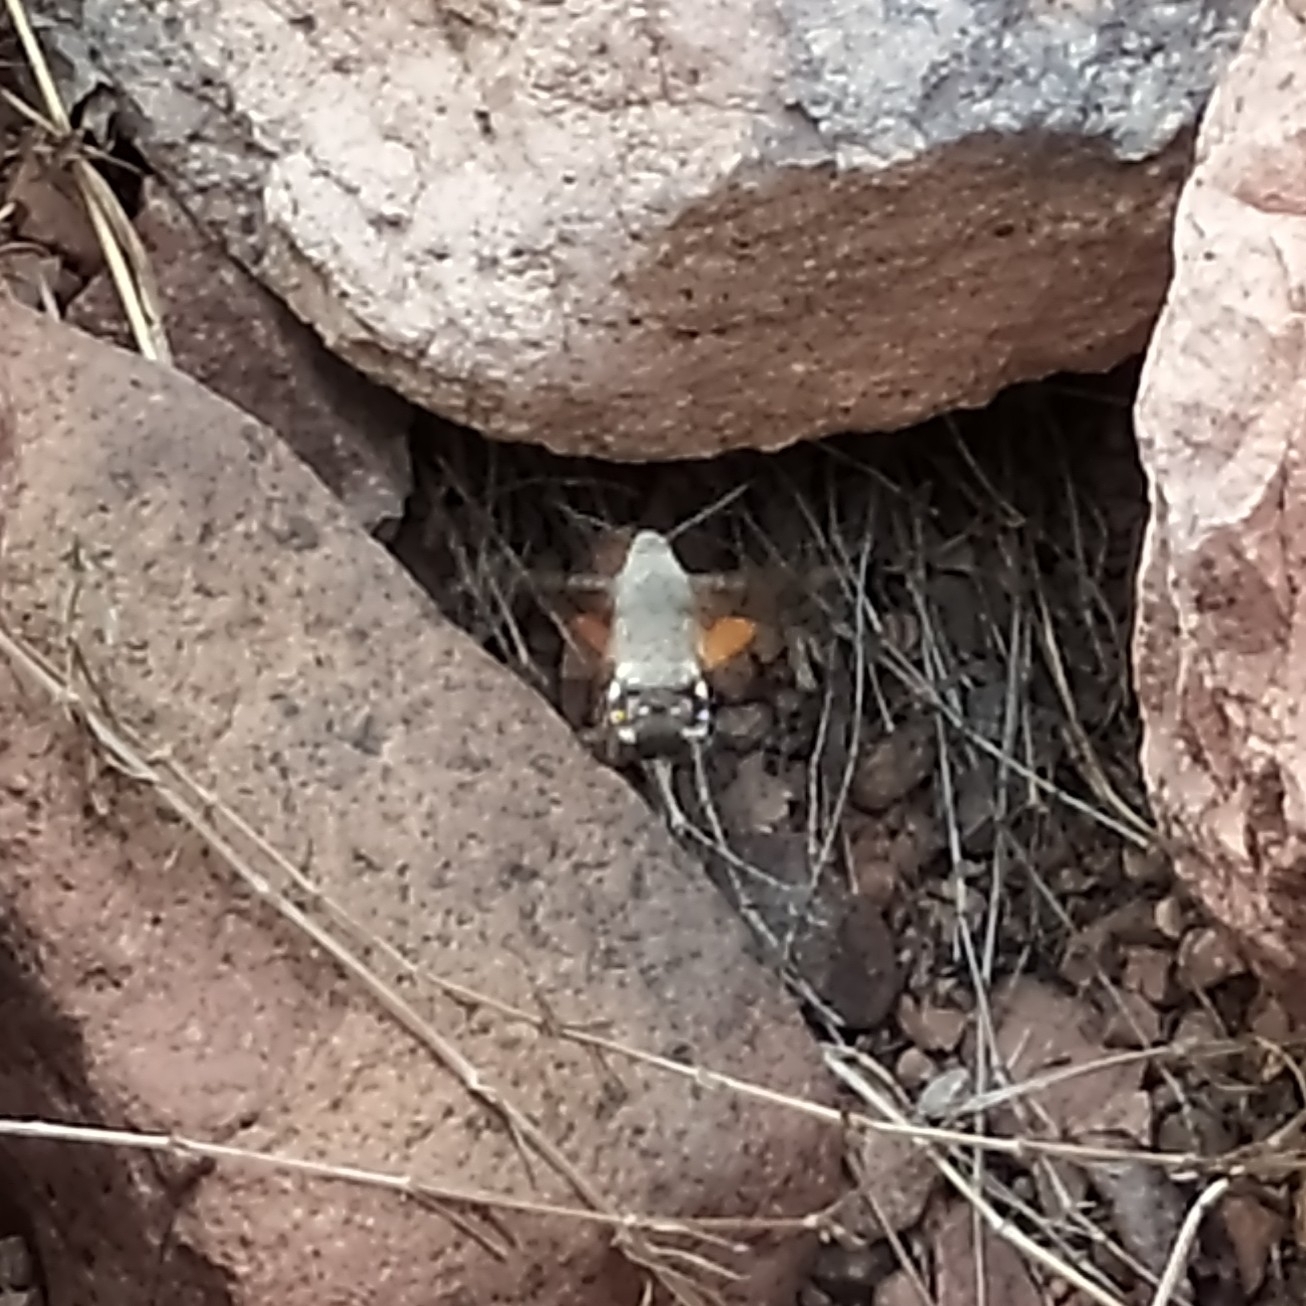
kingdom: Animalia
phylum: Arthropoda
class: Insecta
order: Lepidoptera
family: Sphingidae
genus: Macroglossum
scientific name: Macroglossum stellatarum
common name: Humming-bird hawk-moth
